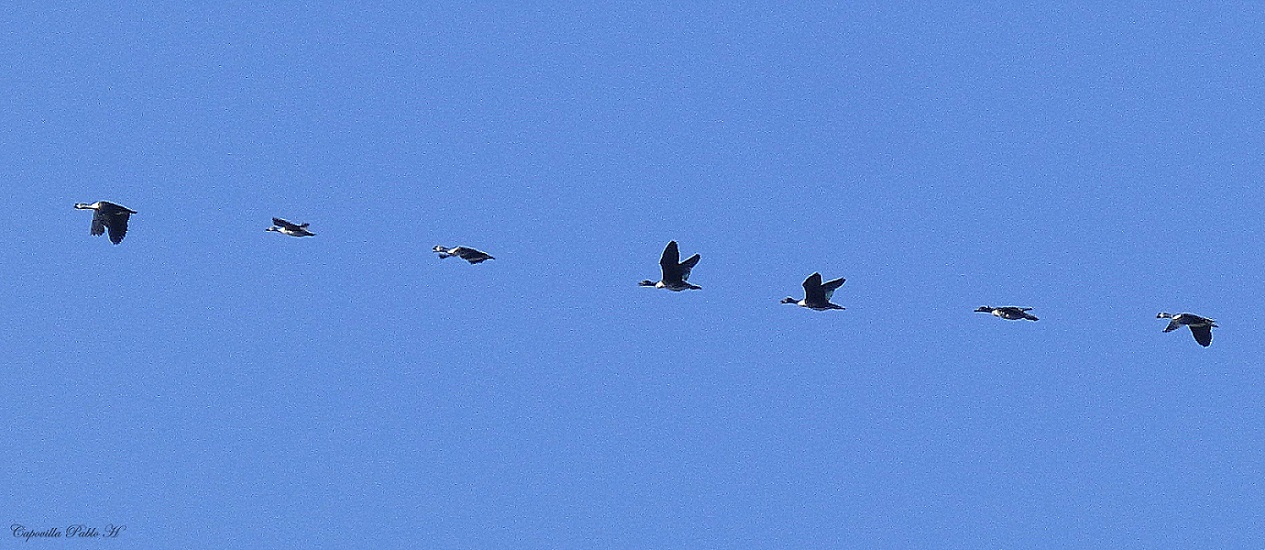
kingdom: Animalia
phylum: Chordata
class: Aves
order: Anseriformes
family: Anatidae
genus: Sarkidiornis
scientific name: Sarkidiornis sylvicola
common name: Comb duck
